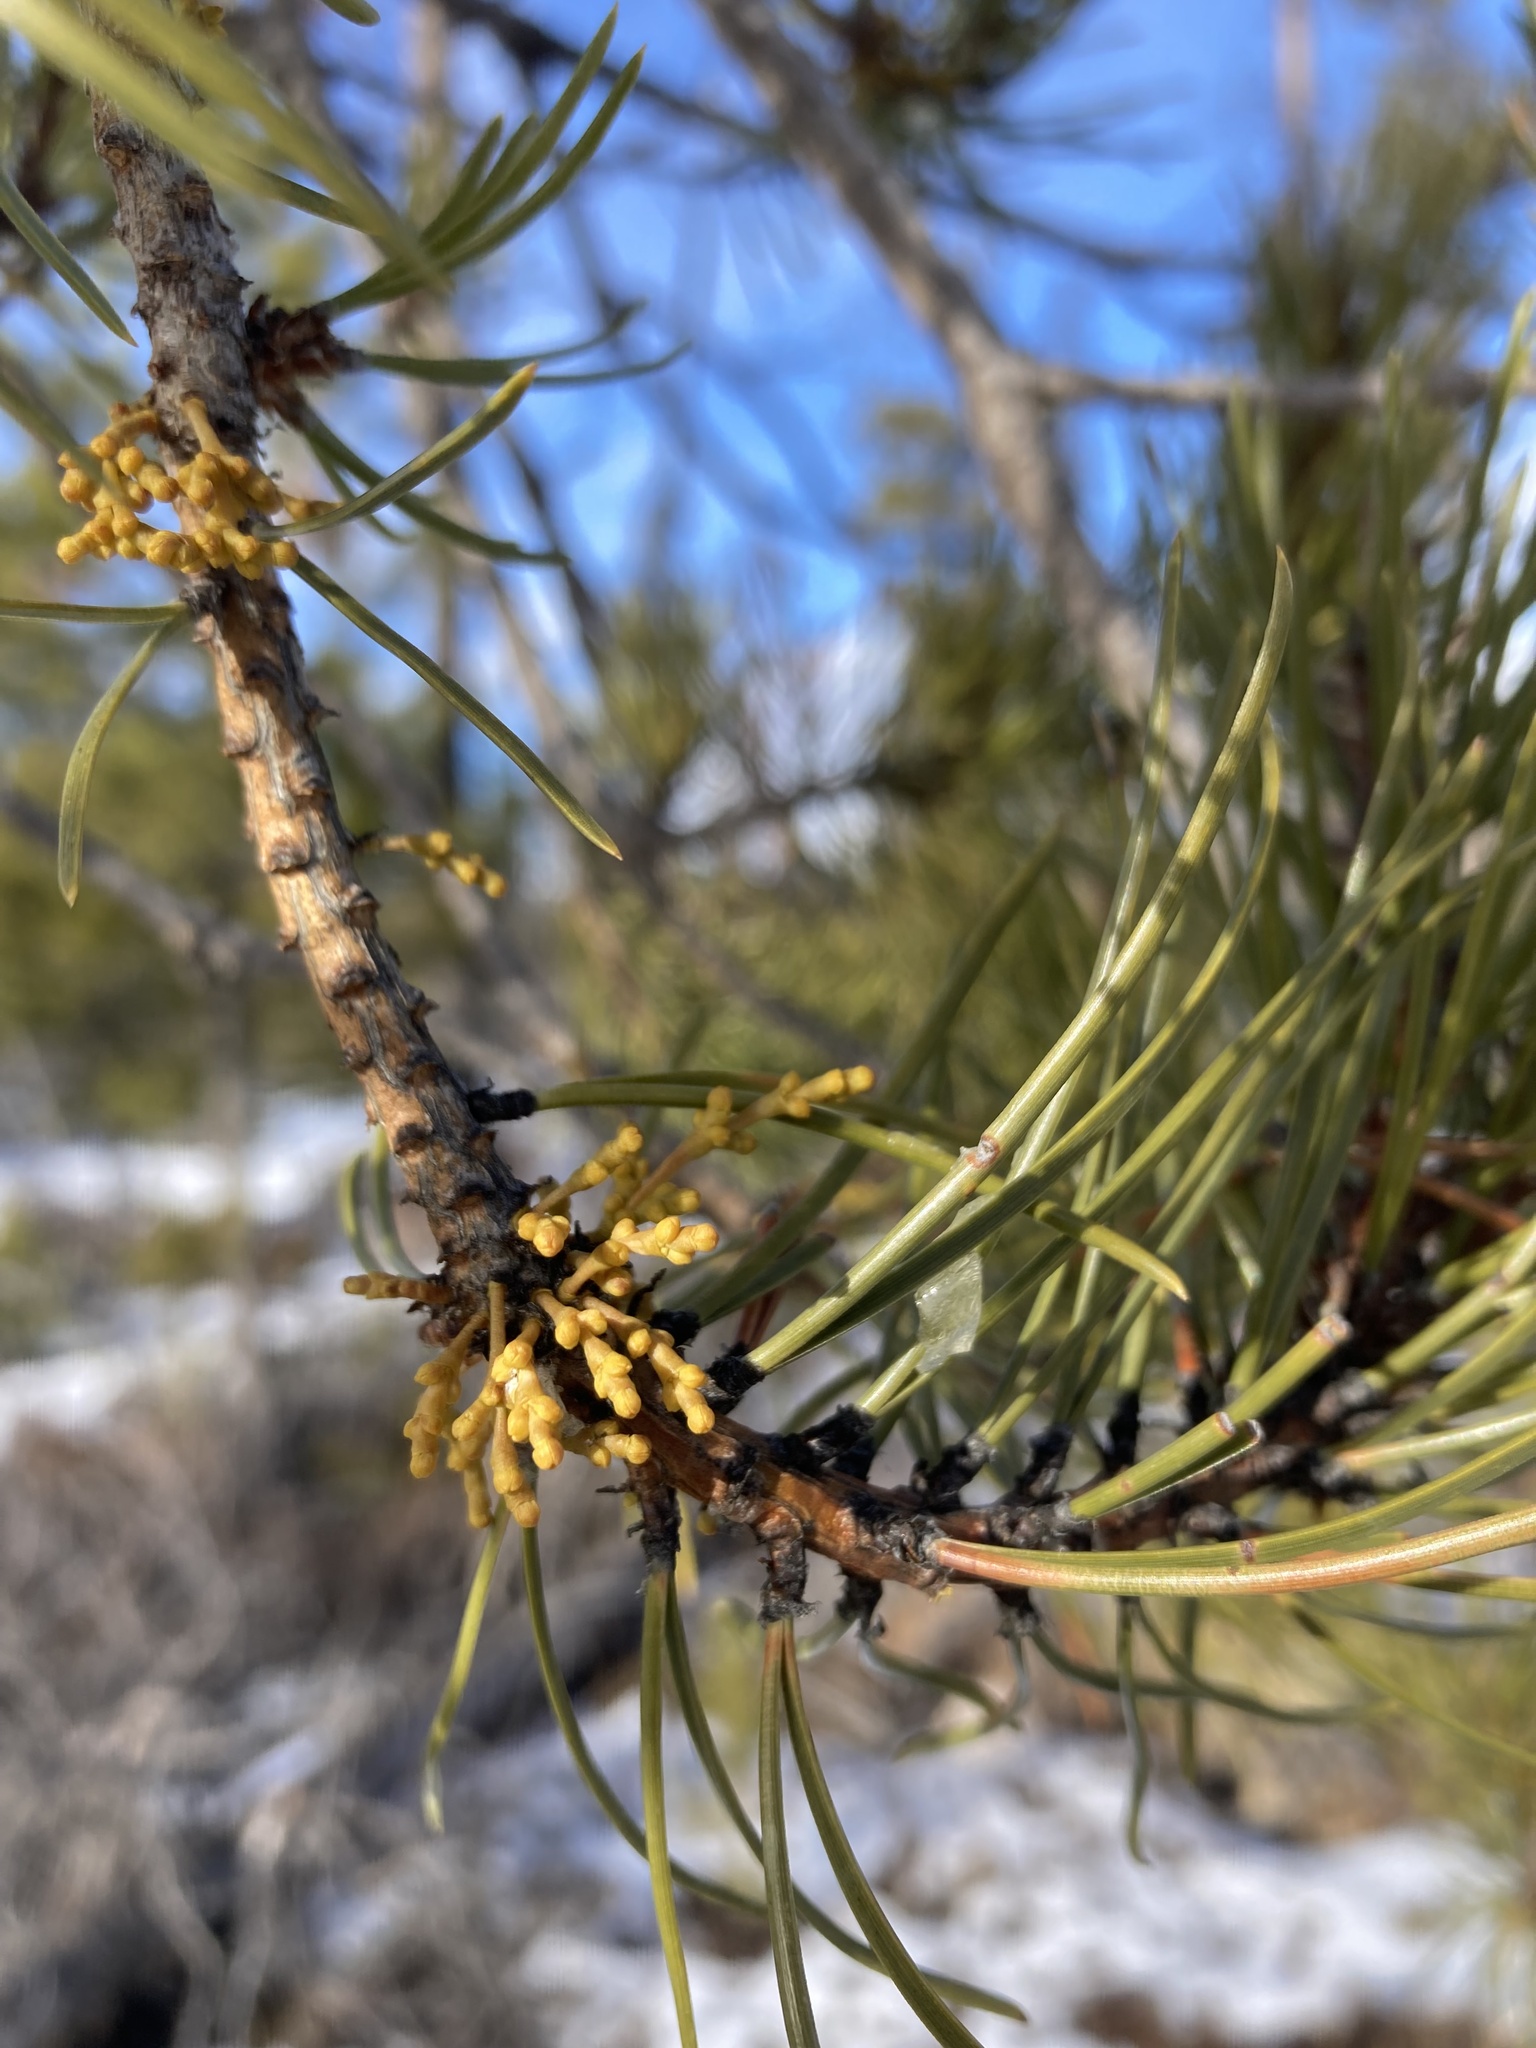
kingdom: Plantae
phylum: Tracheophyta
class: Magnoliopsida
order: Santalales
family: Viscaceae
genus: Arceuthobium
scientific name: Arceuthobium americanum
